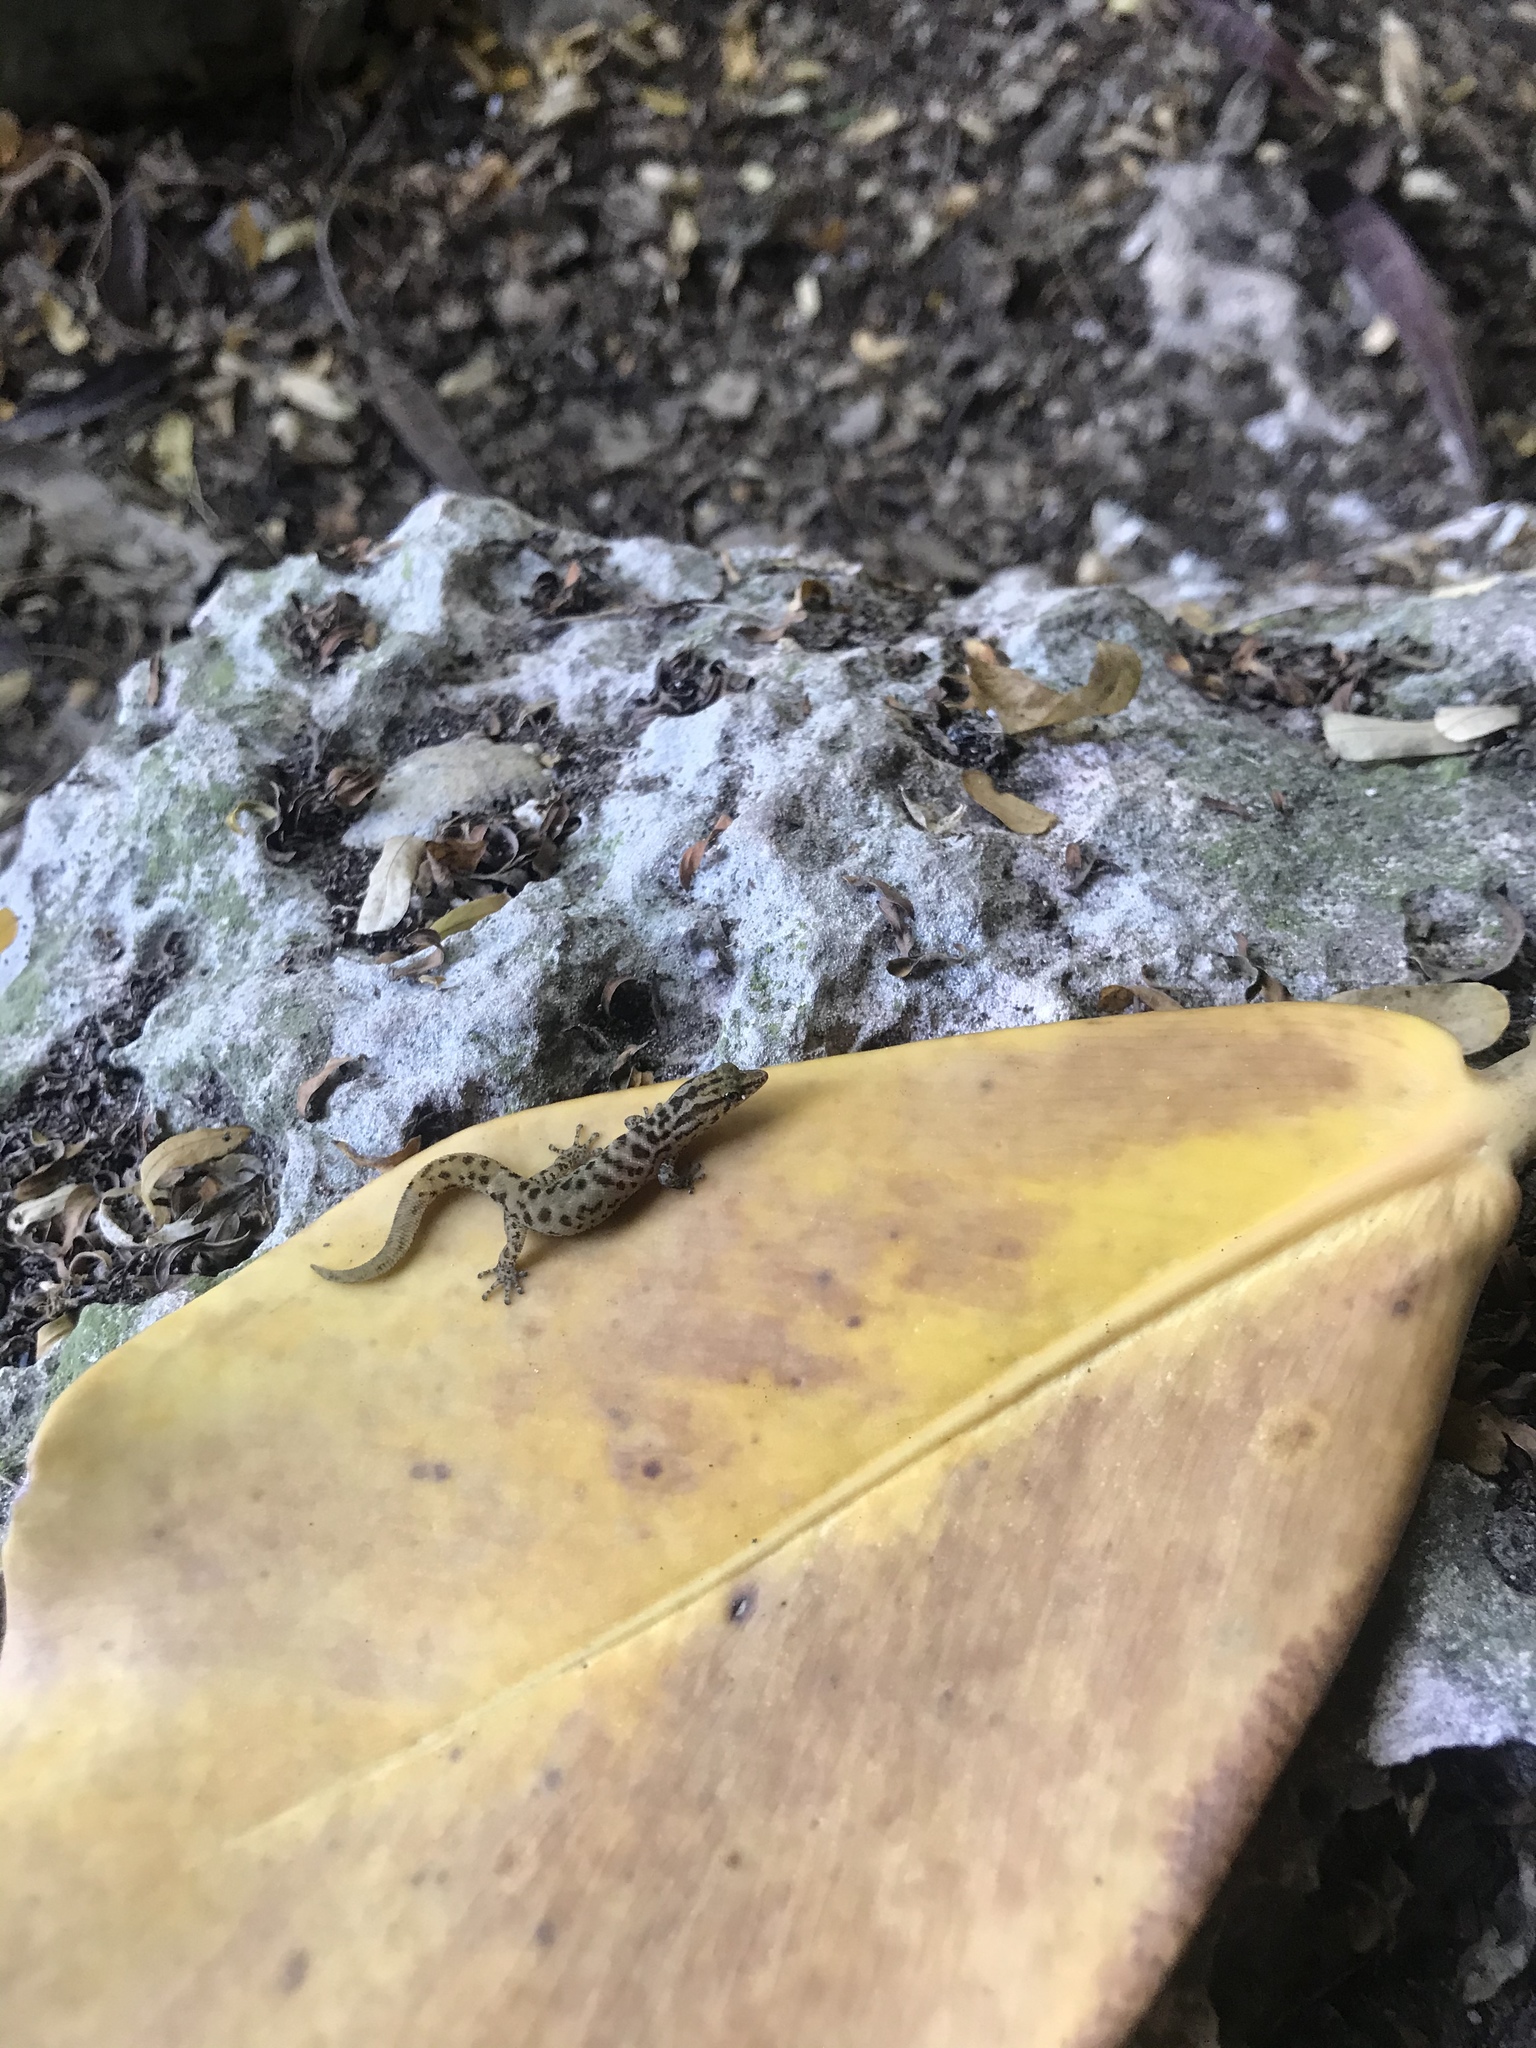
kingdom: Animalia
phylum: Chordata
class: Squamata
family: Sphaerodactylidae
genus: Sphaerodactylus
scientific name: Sphaerodactylus caicosensis
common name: Caicos least gecko
